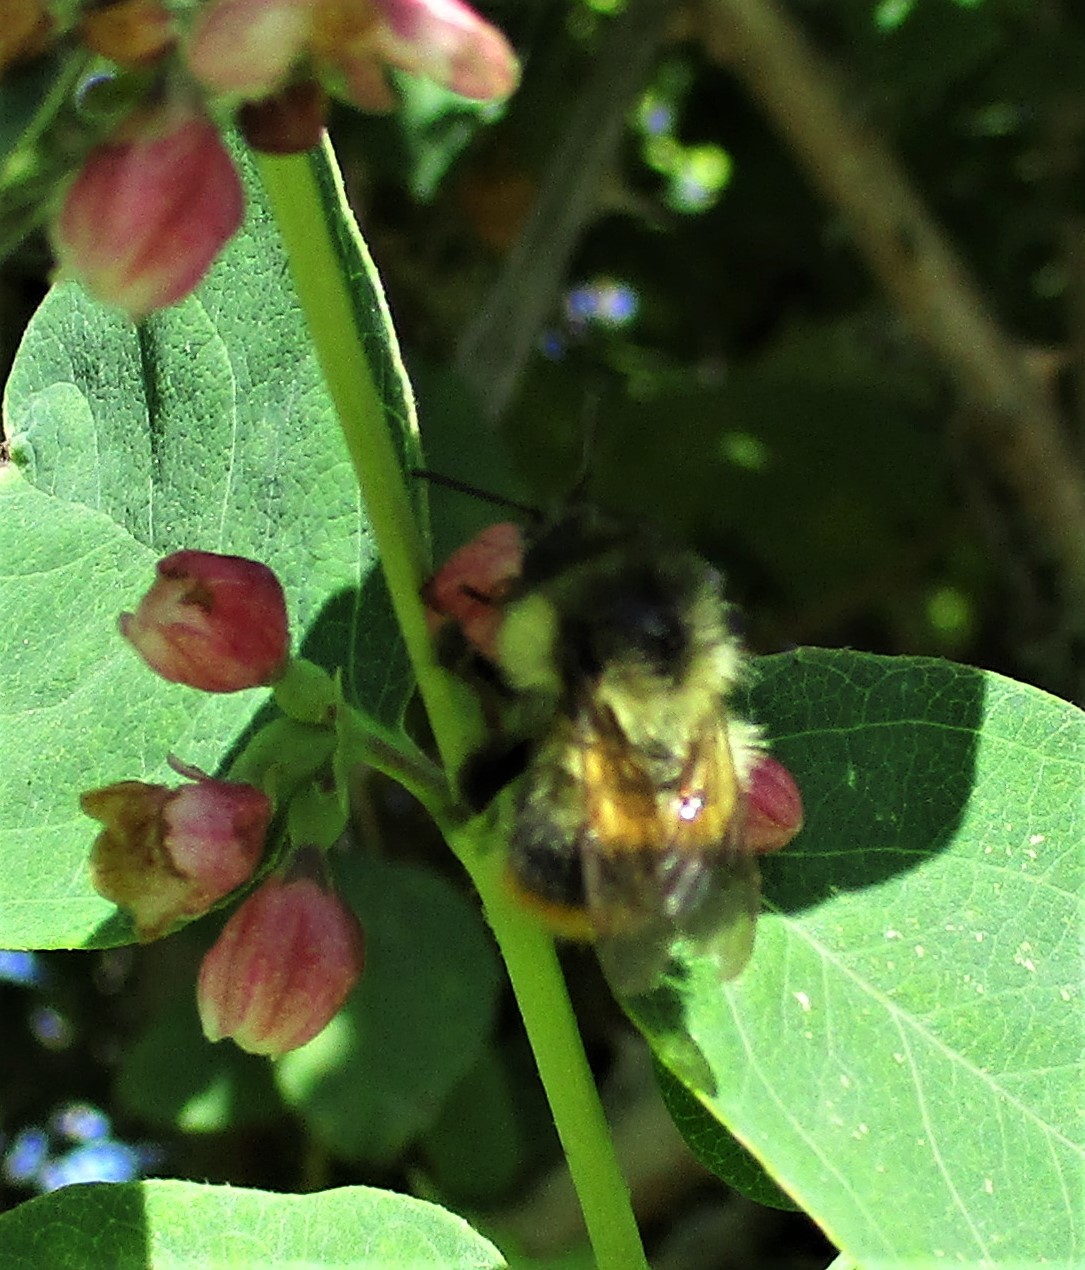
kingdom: Animalia
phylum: Arthropoda
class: Insecta
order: Hymenoptera
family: Apidae
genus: Bombus
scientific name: Bombus mixtus
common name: Fuzzy-horned bumble bee
